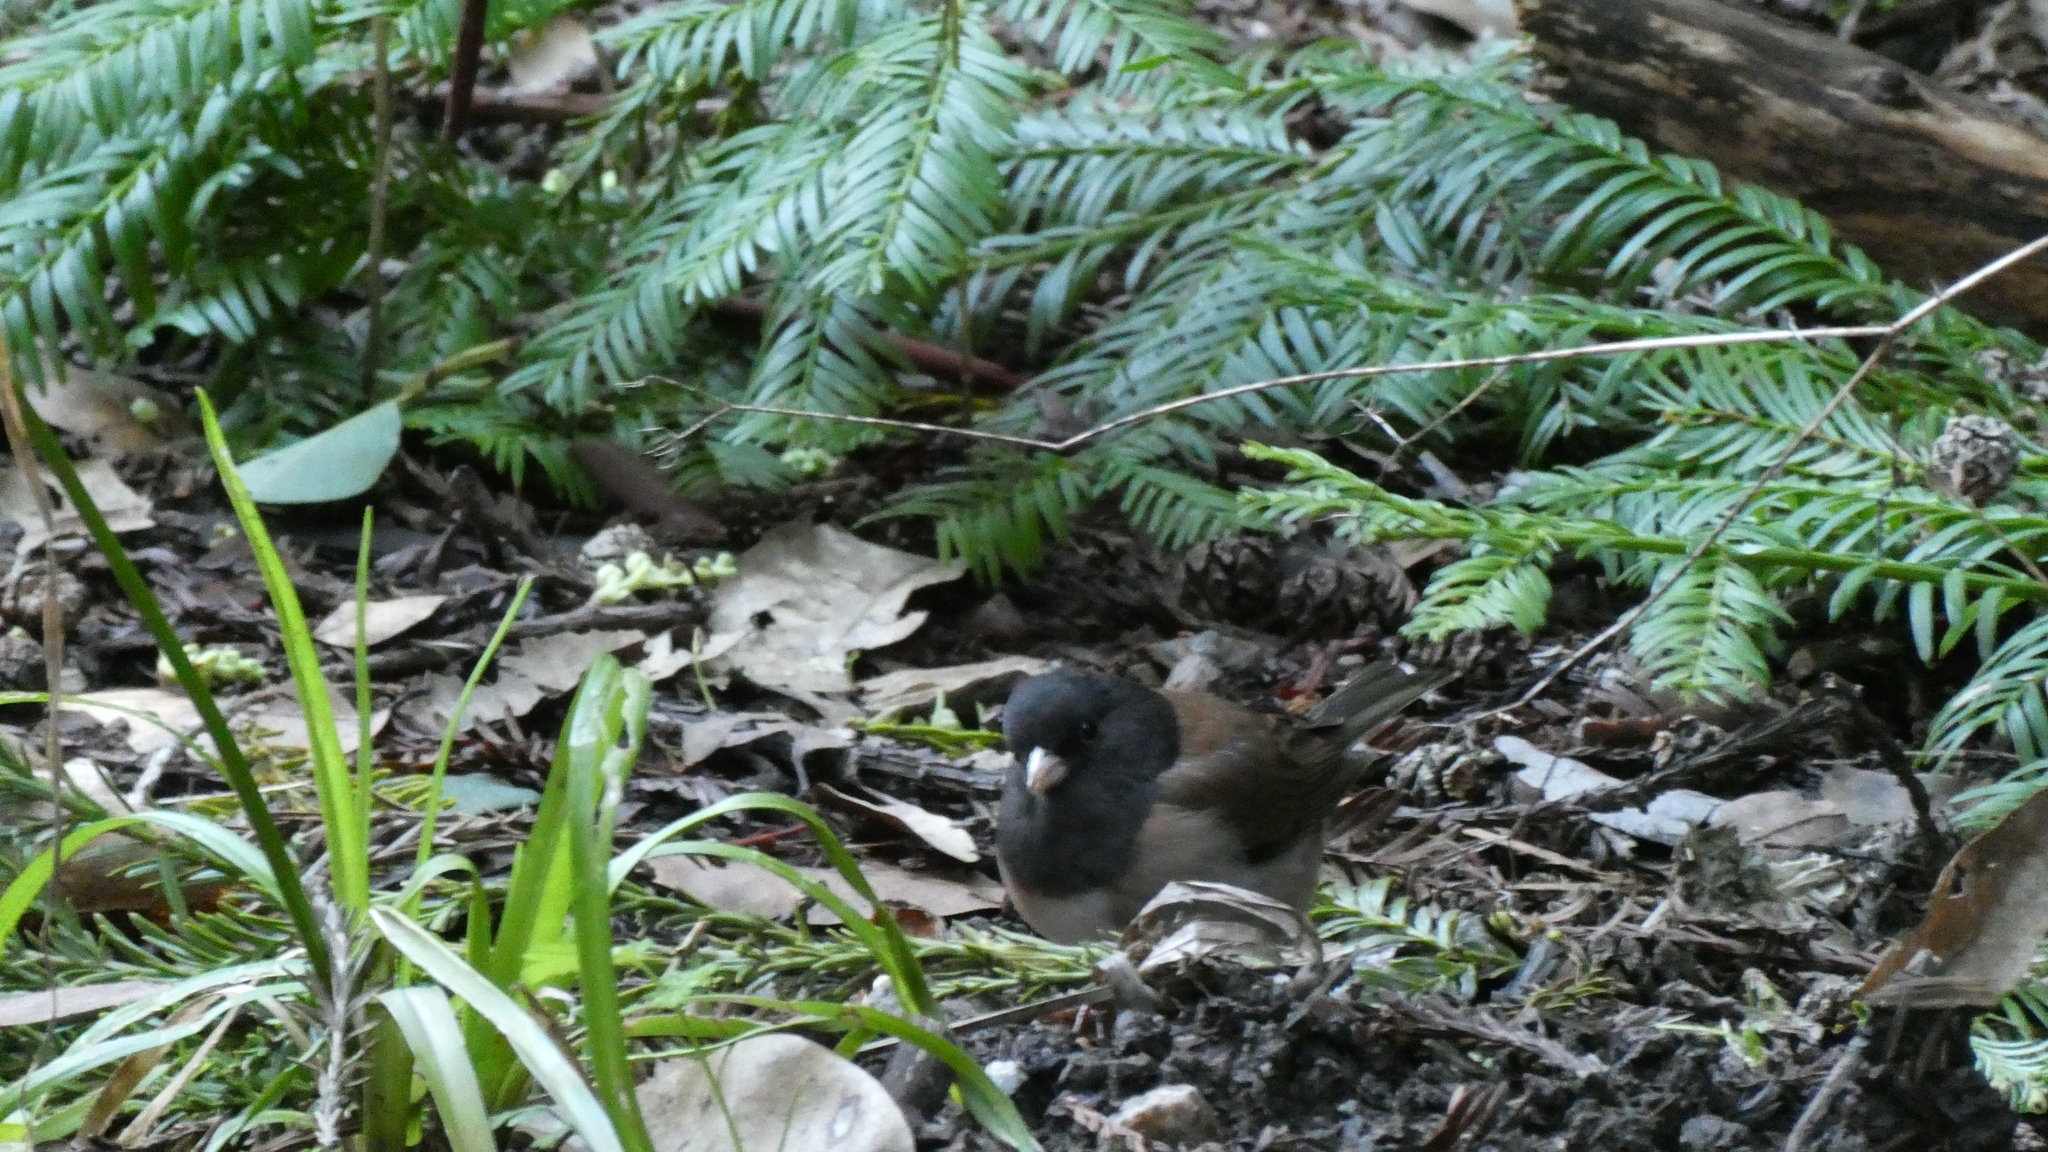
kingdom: Animalia
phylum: Chordata
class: Aves
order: Passeriformes
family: Passerellidae
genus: Junco
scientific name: Junco hyemalis
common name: Dark-eyed junco
